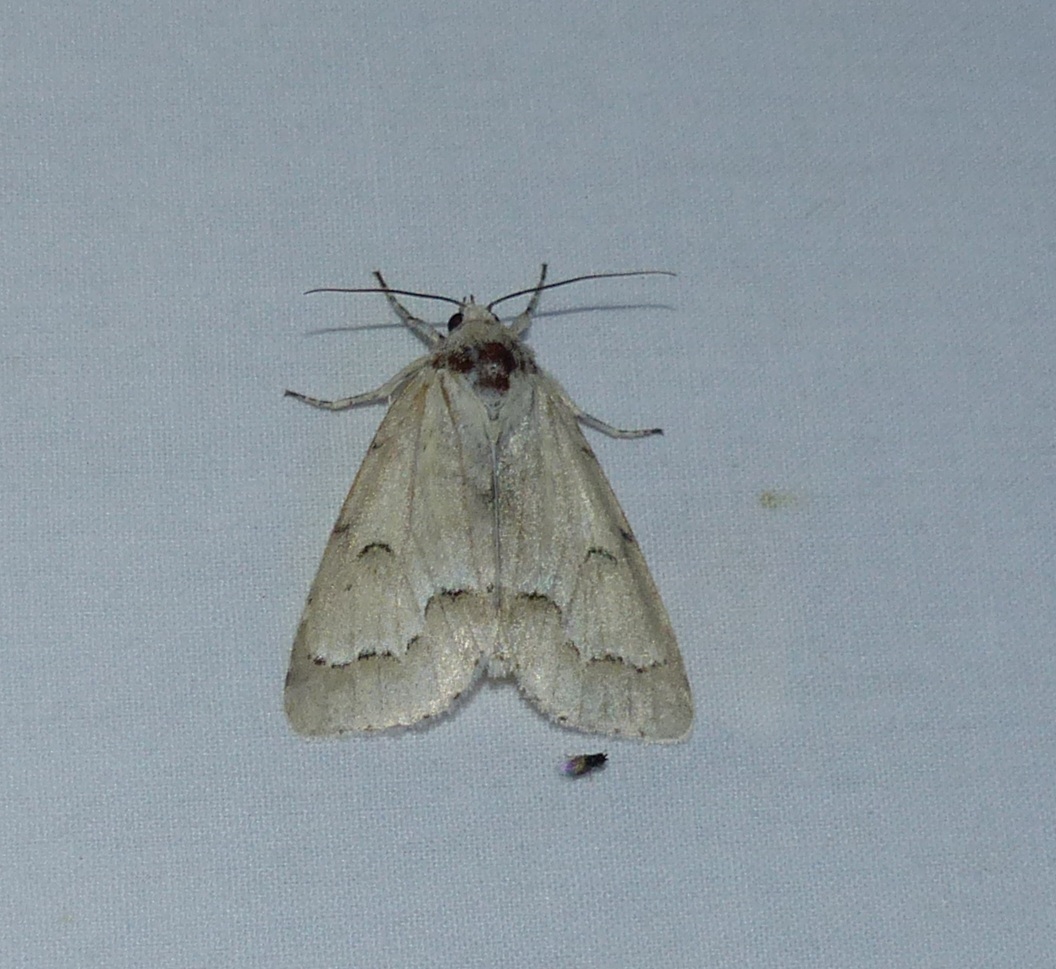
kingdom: Animalia
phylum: Arthropoda
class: Insecta
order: Lepidoptera
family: Noctuidae
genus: Acronicta
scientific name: Acronicta innotata
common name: Unmarked dagger
